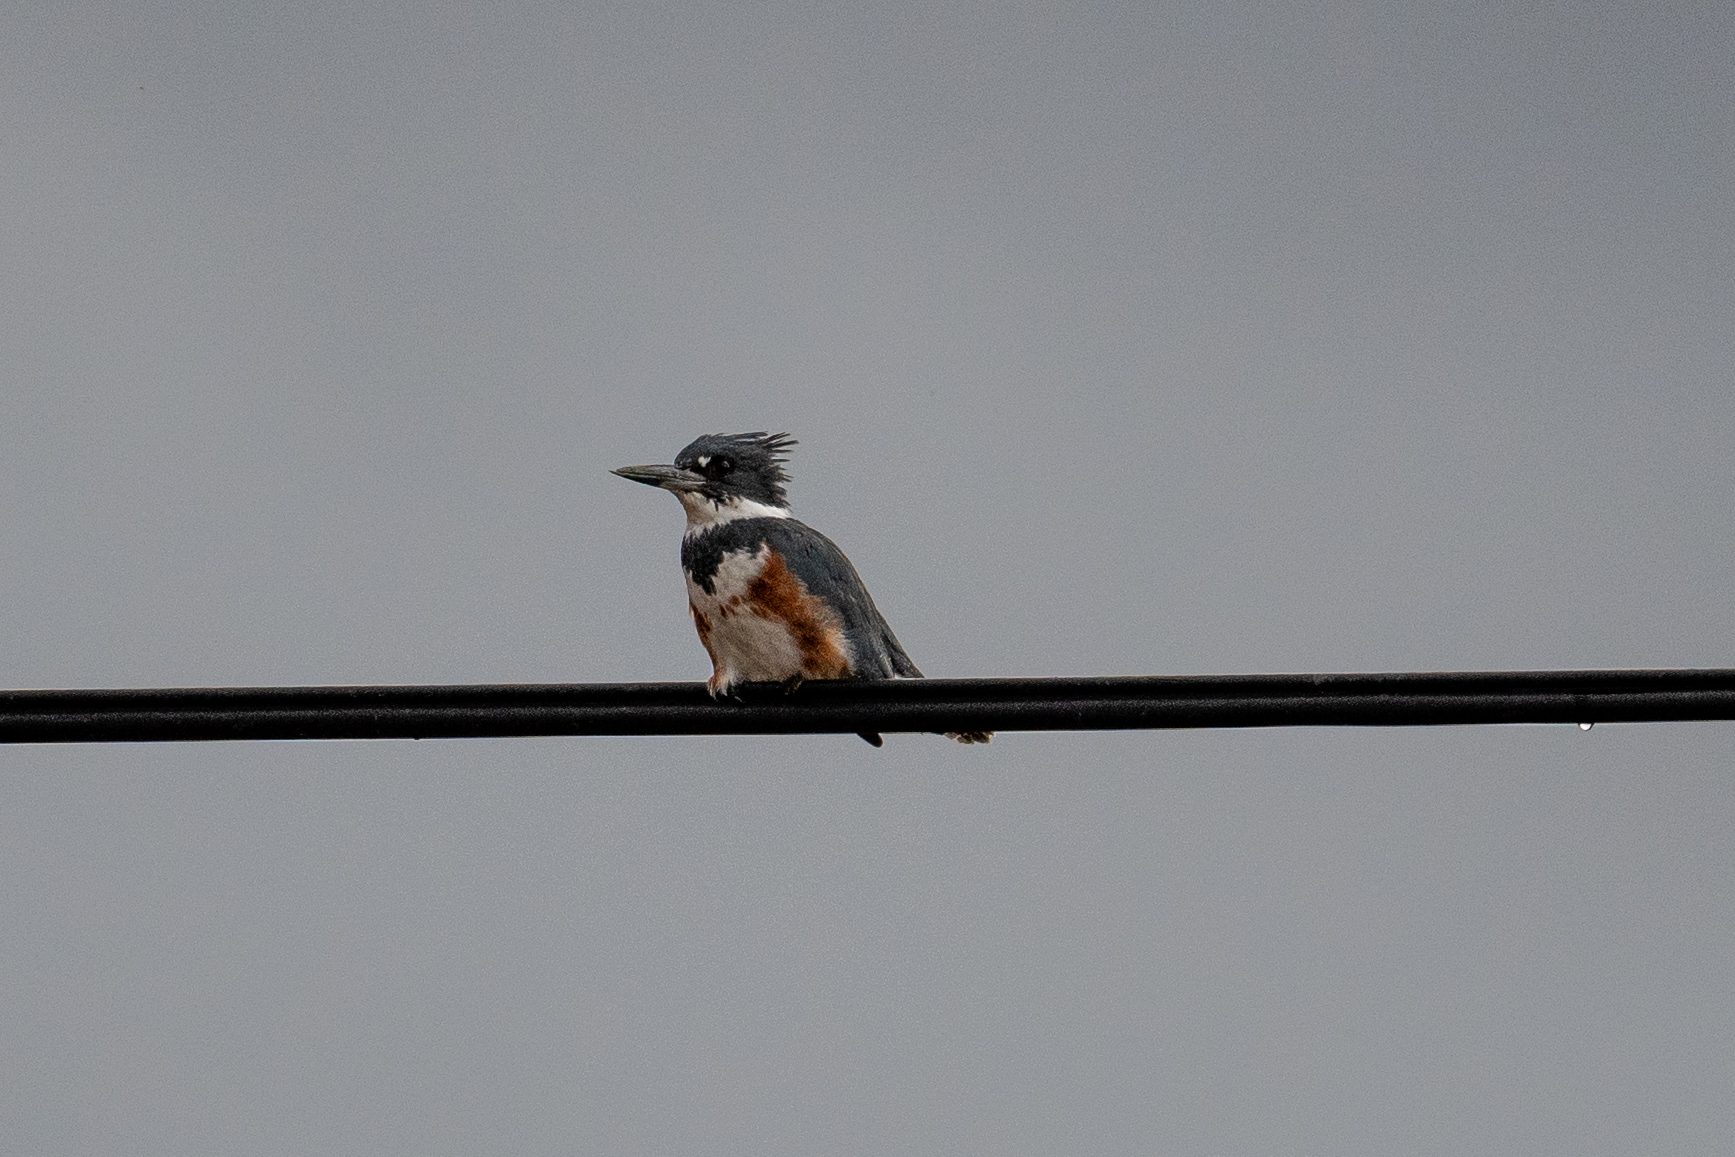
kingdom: Animalia
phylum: Chordata
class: Aves
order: Coraciiformes
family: Alcedinidae
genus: Megaceryle
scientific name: Megaceryle alcyon
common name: Belted kingfisher
